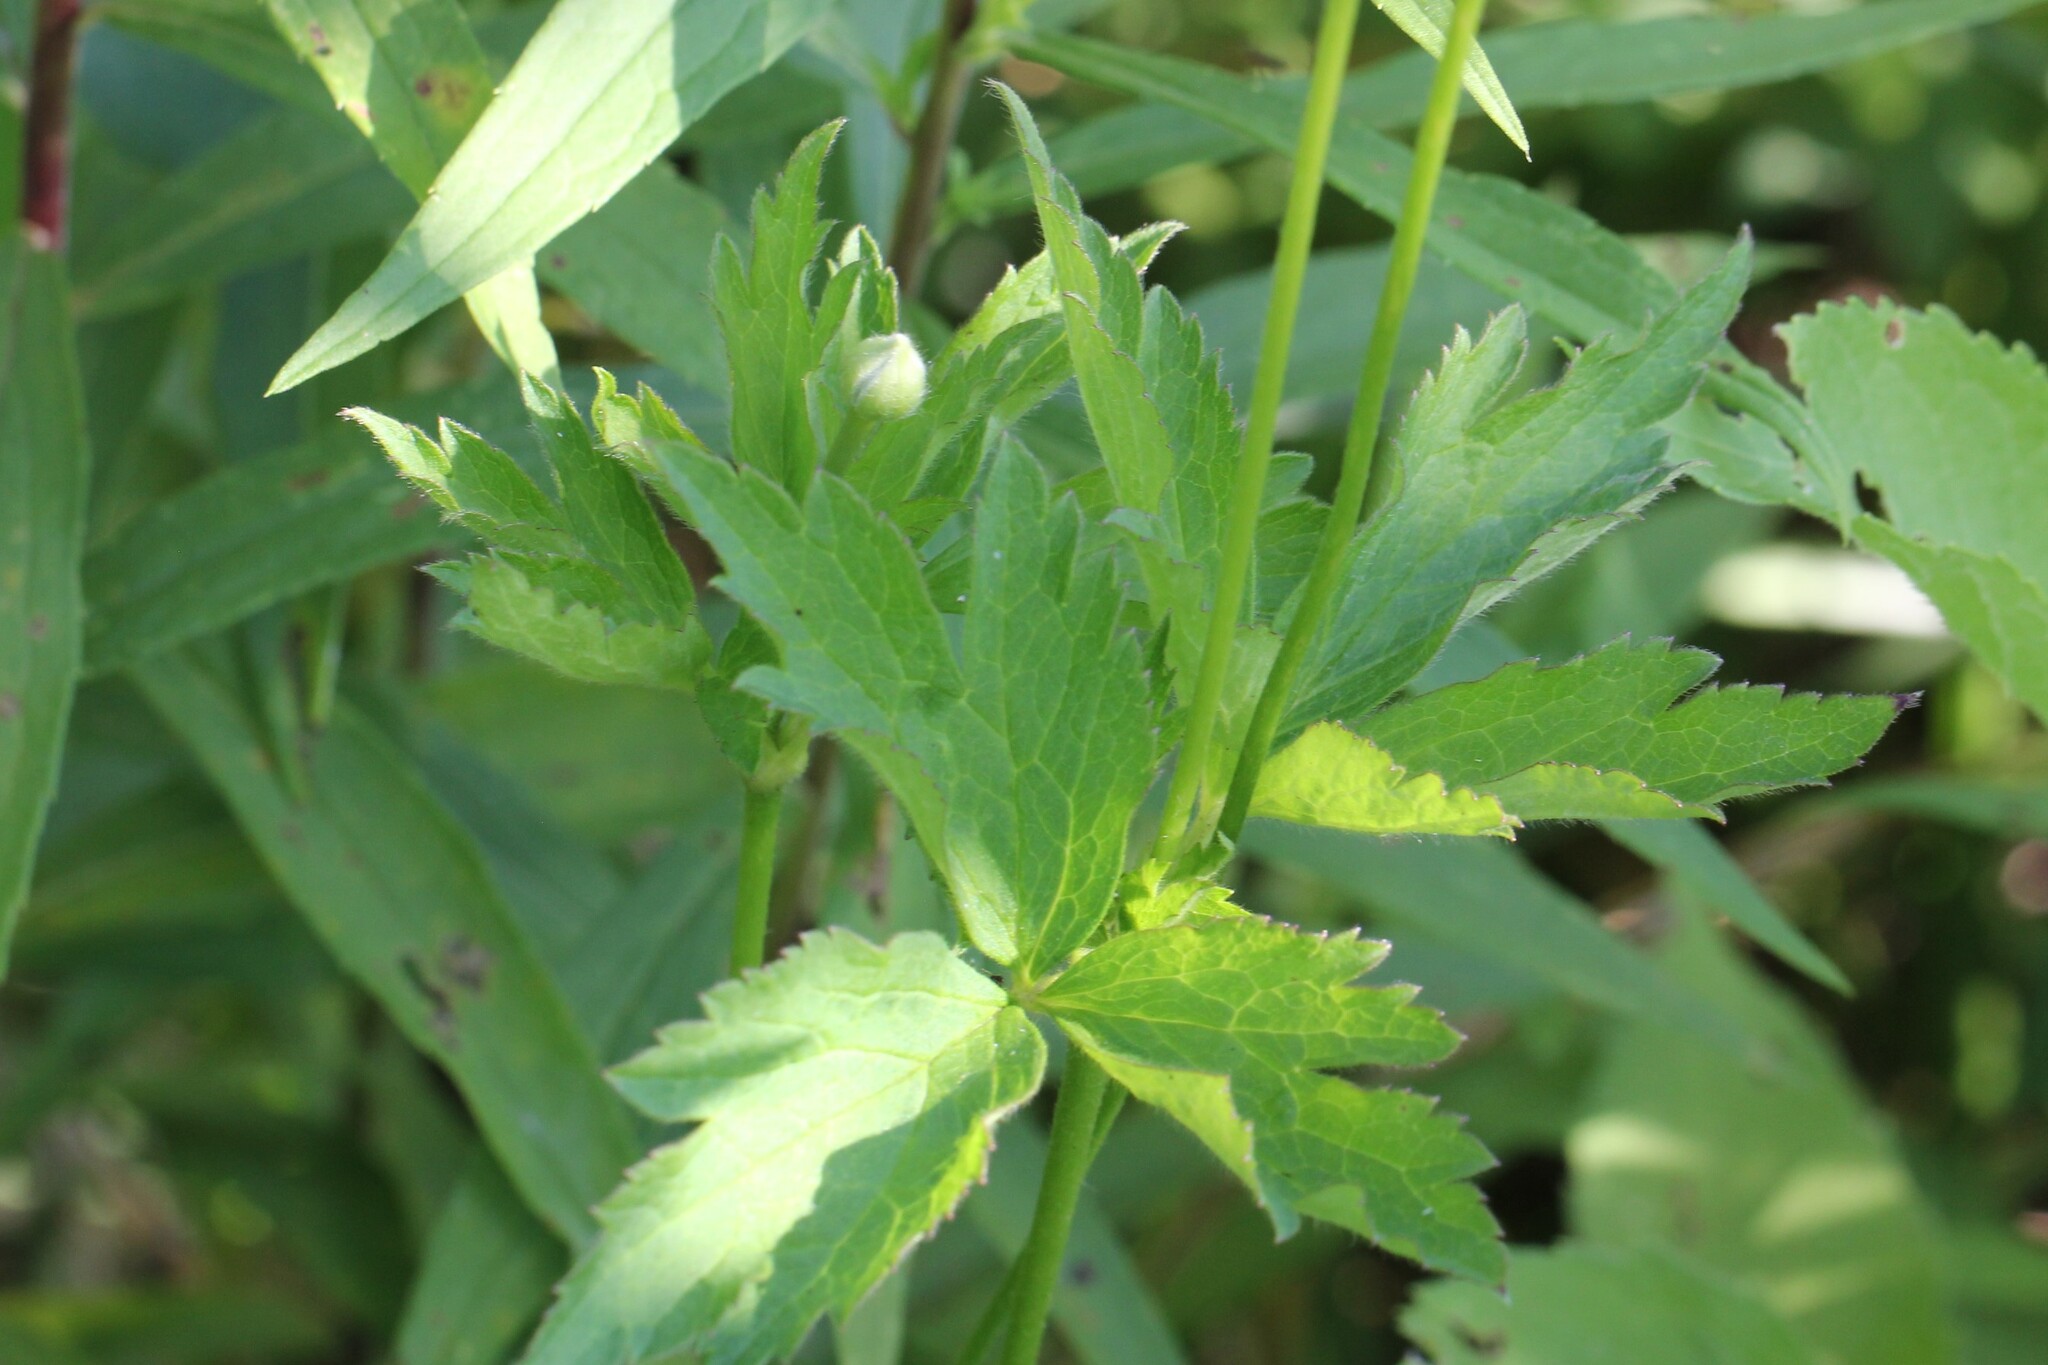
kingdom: Plantae
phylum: Tracheophyta
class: Magnoliopsida
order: Ranunculales
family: Ranunculaceae
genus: Anemone
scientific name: Anemone virginiana
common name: Tall anemone
